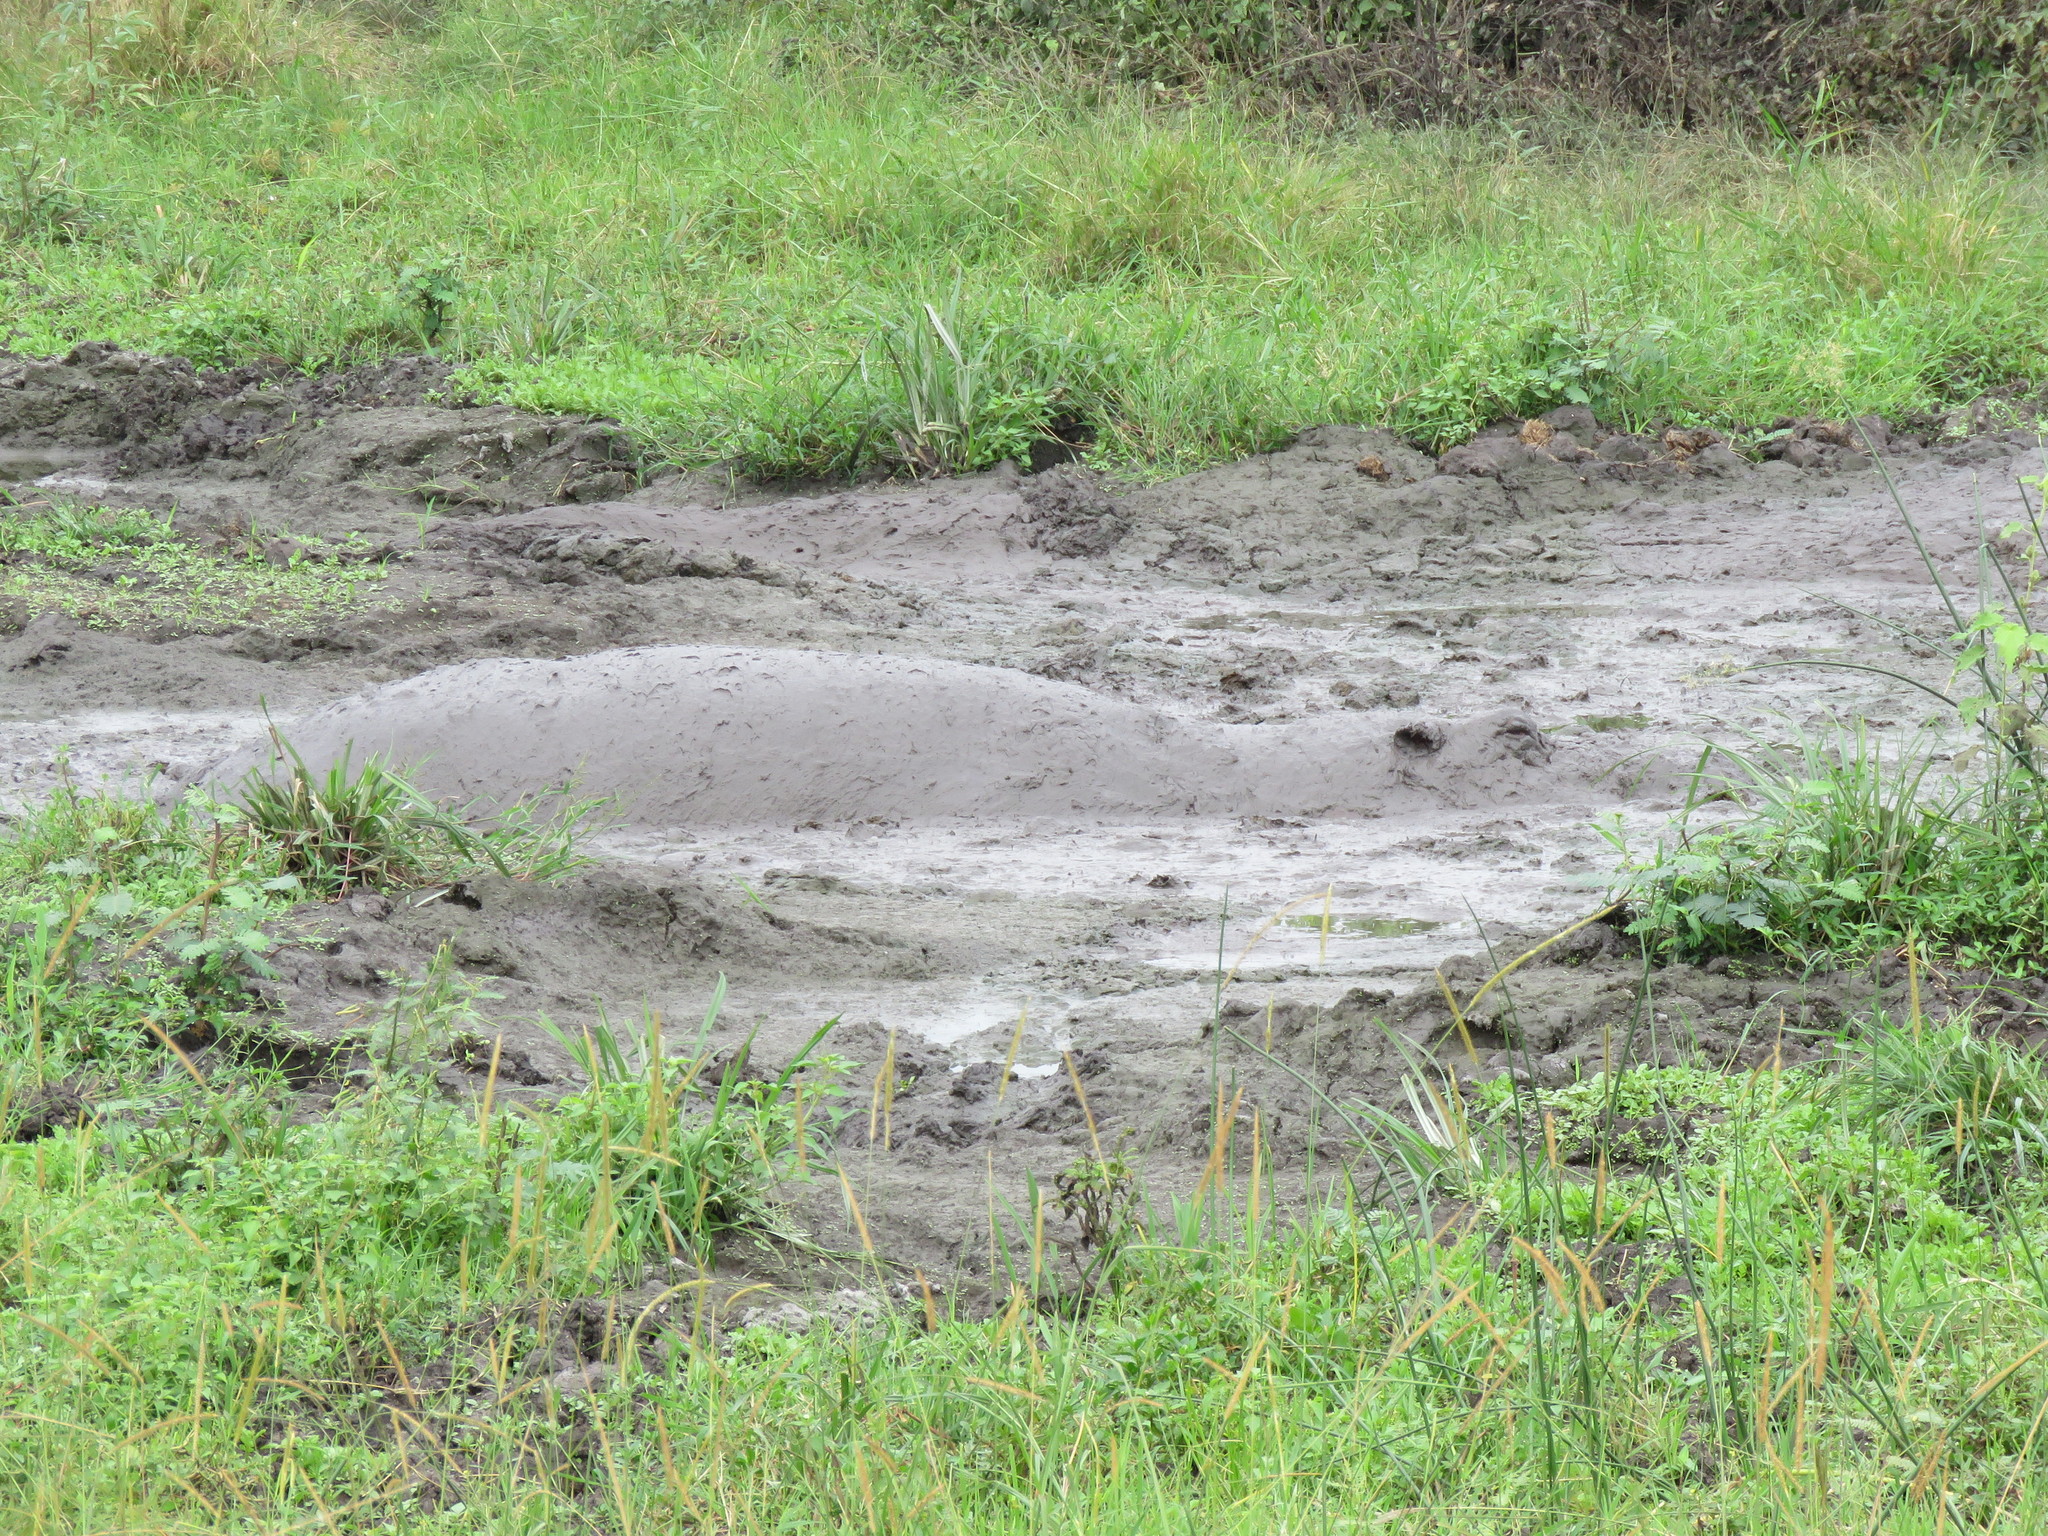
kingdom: Animalia
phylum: Chordata
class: Mammalia
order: Artiodactyla
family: Hippopotamidae
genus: Hippopotamus
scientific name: Hippopotamus amphibius
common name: Common hippopotamus
